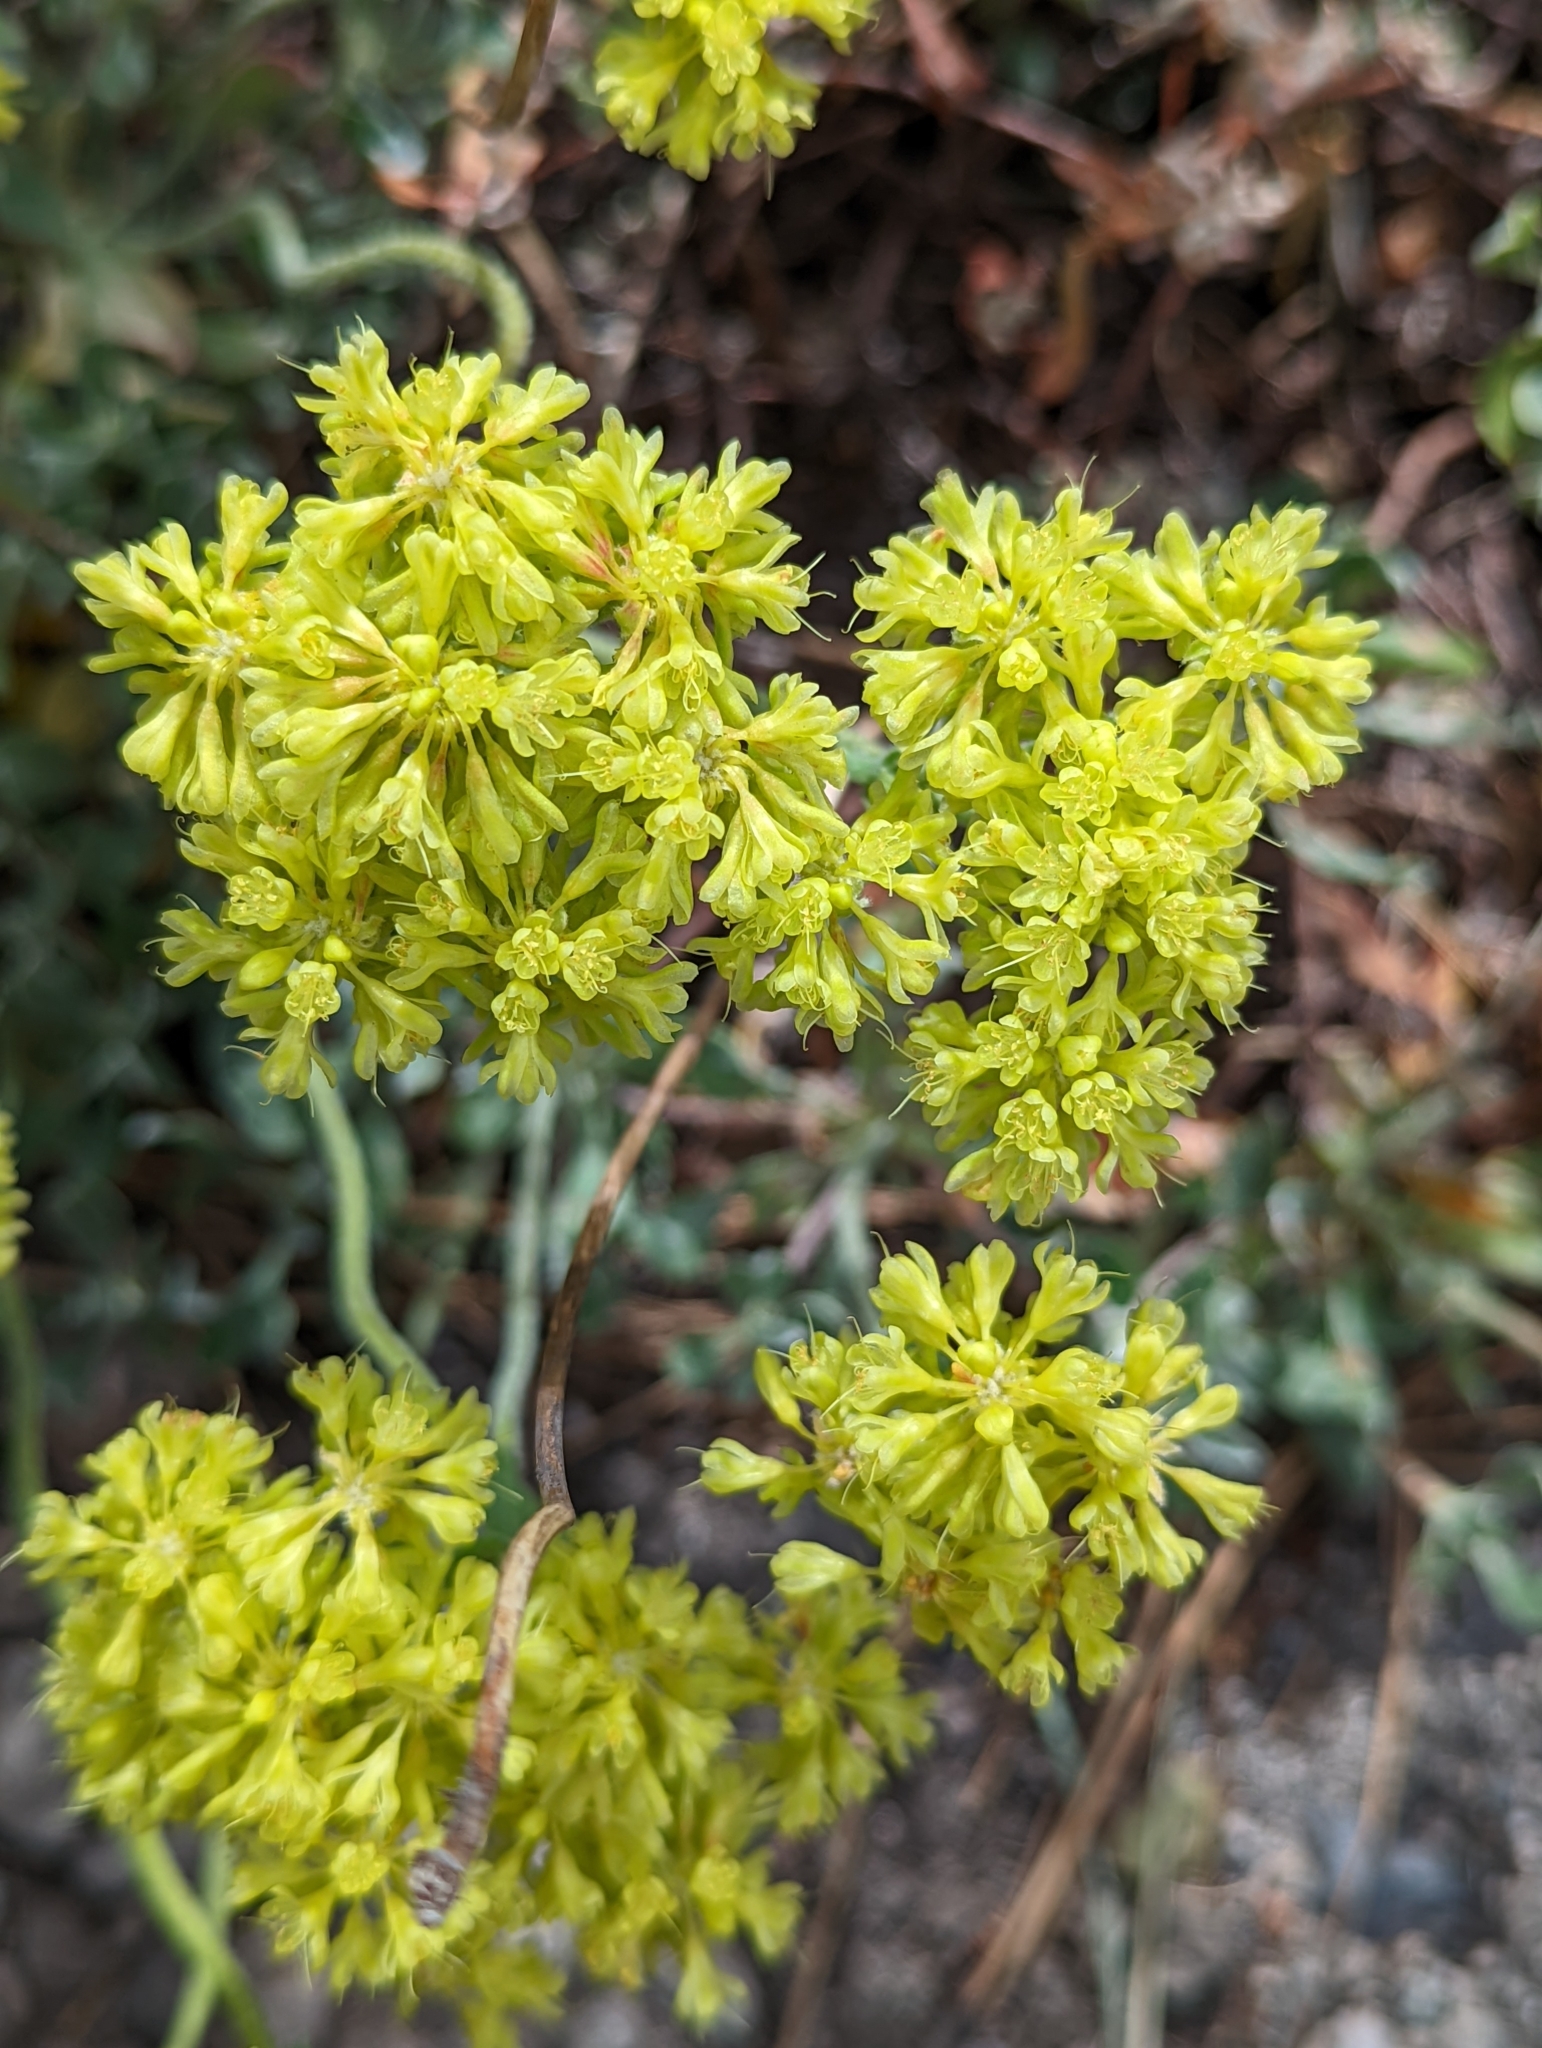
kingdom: Plantae
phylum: Tracheophyta
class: Magnoliopsida
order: Caryophyllales
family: Polygonaceae
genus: Eriogonum
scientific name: Eriogonum umbellatum
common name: Sulfur-buckwheat
